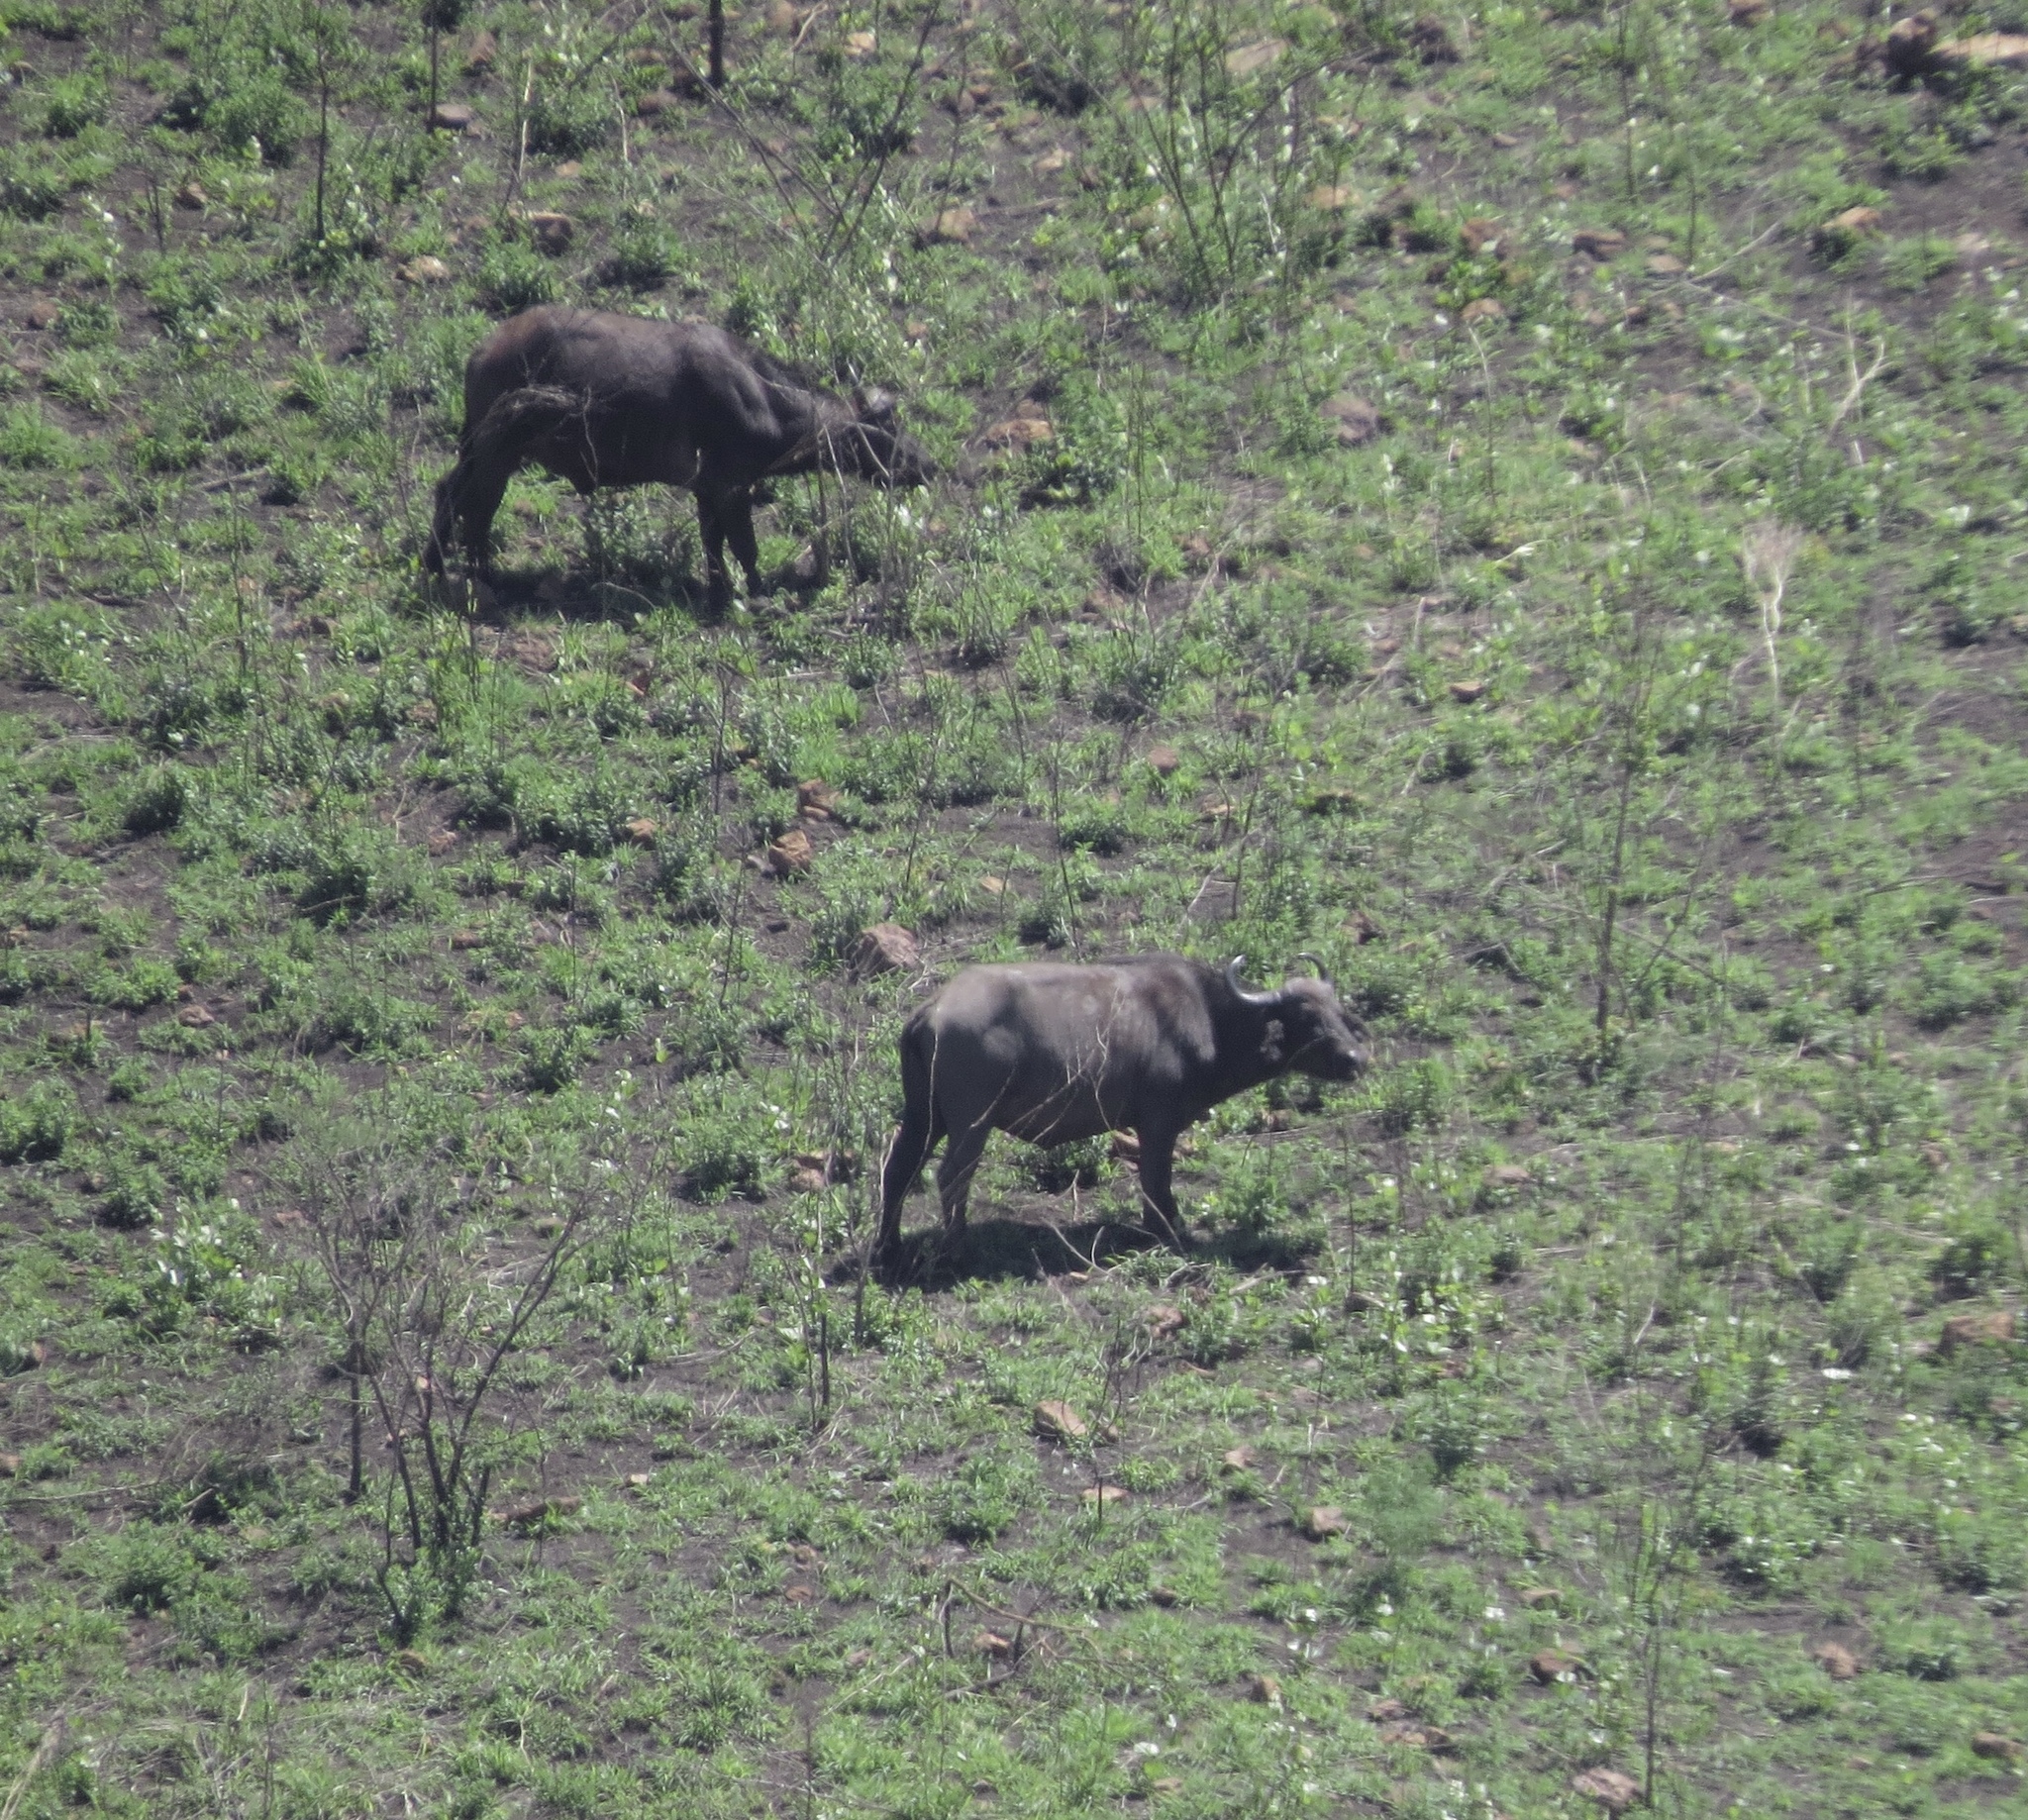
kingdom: Animalia
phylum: Chordata
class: Mammalia
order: Artiodactyla
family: Bovidae
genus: Syncerus
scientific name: Syncerus caffer
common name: African buffalo
